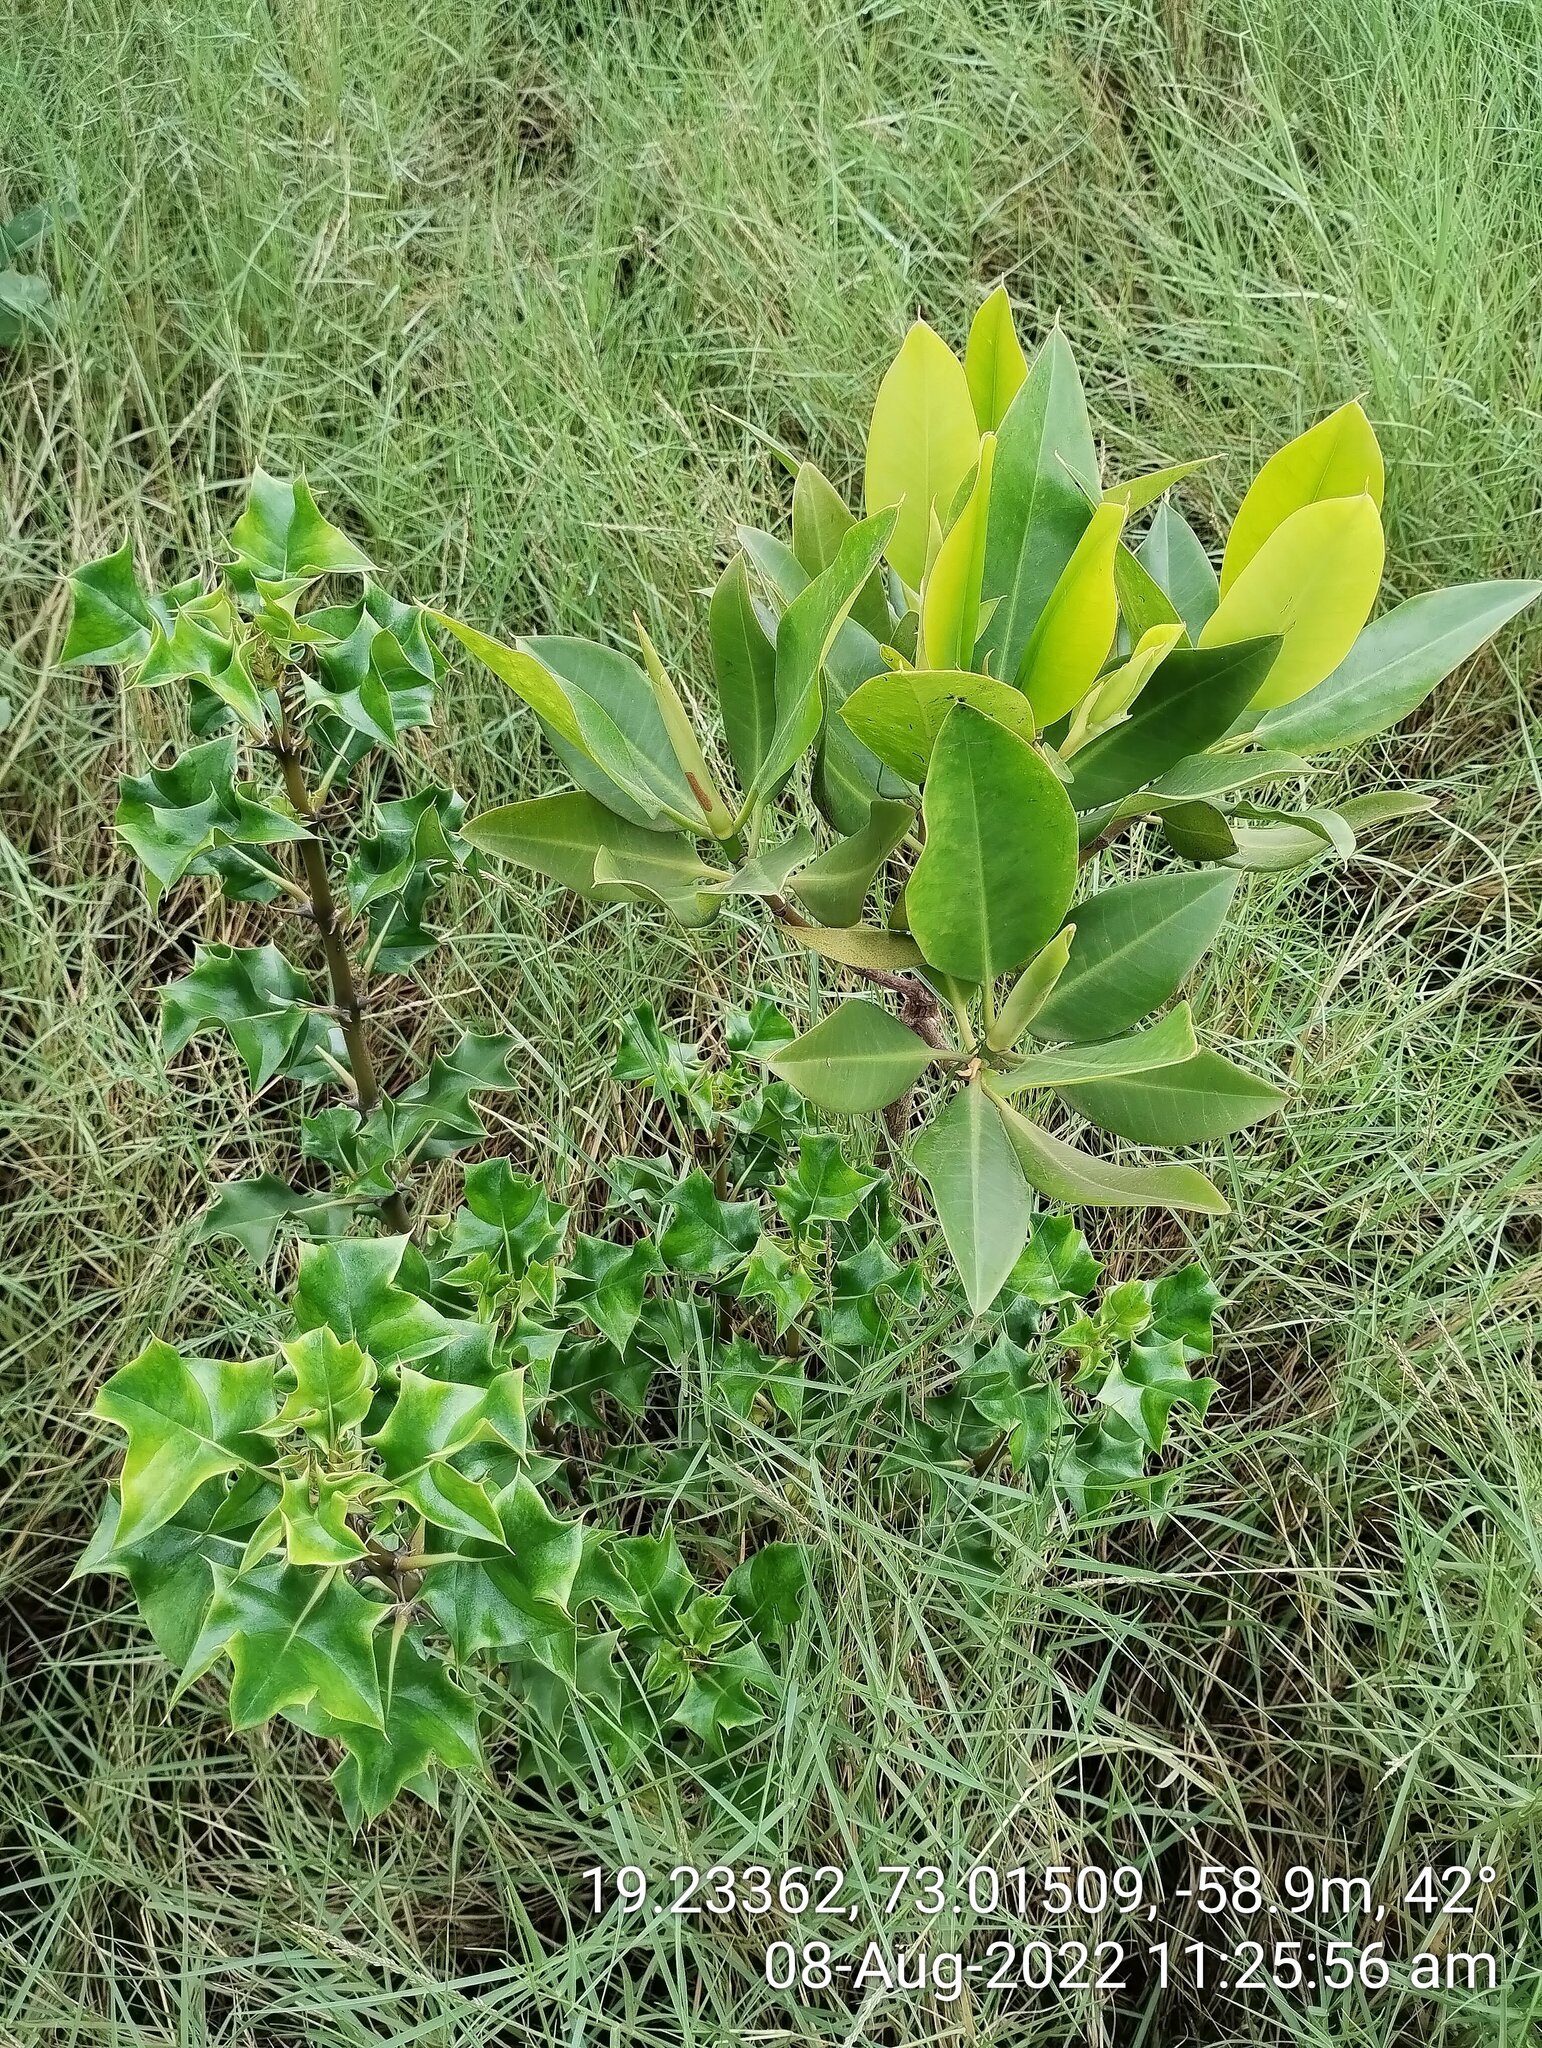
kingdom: Plantae
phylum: Tracheophyta
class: Magnoliopsida
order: Malpighiales
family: Rhizophoraceae
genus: Rhizophora
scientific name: Rhizophora mucronata
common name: Loop-root mangrove
